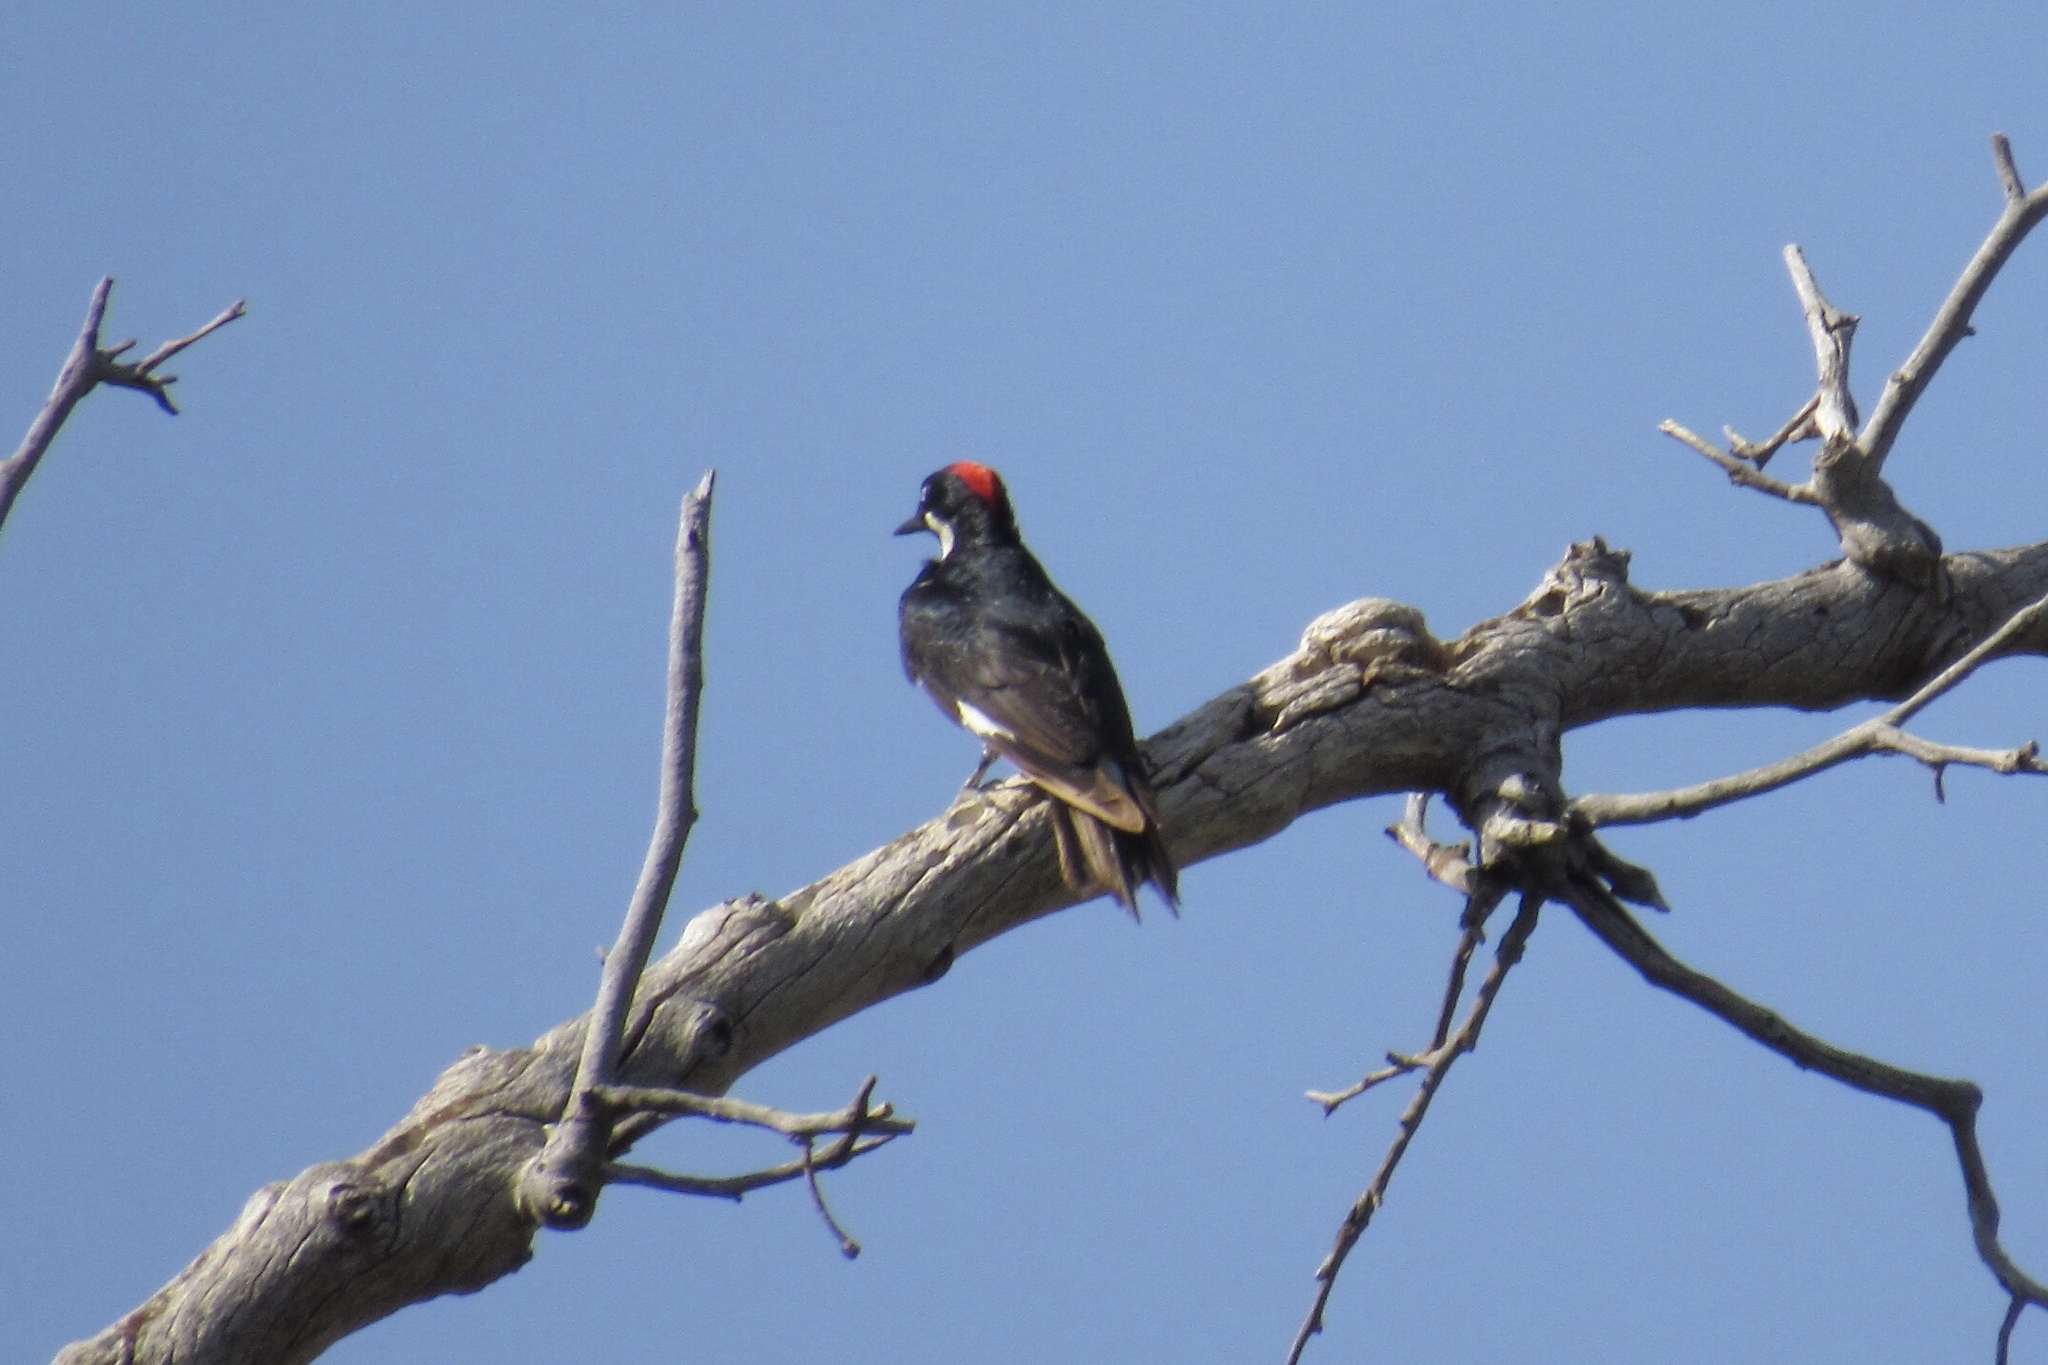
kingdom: Animalia
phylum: Chordata
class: Aves
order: Piciformes
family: Picidae
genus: Melanerpes
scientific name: Melanerpes formicivorus
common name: Acorn woodpecker
